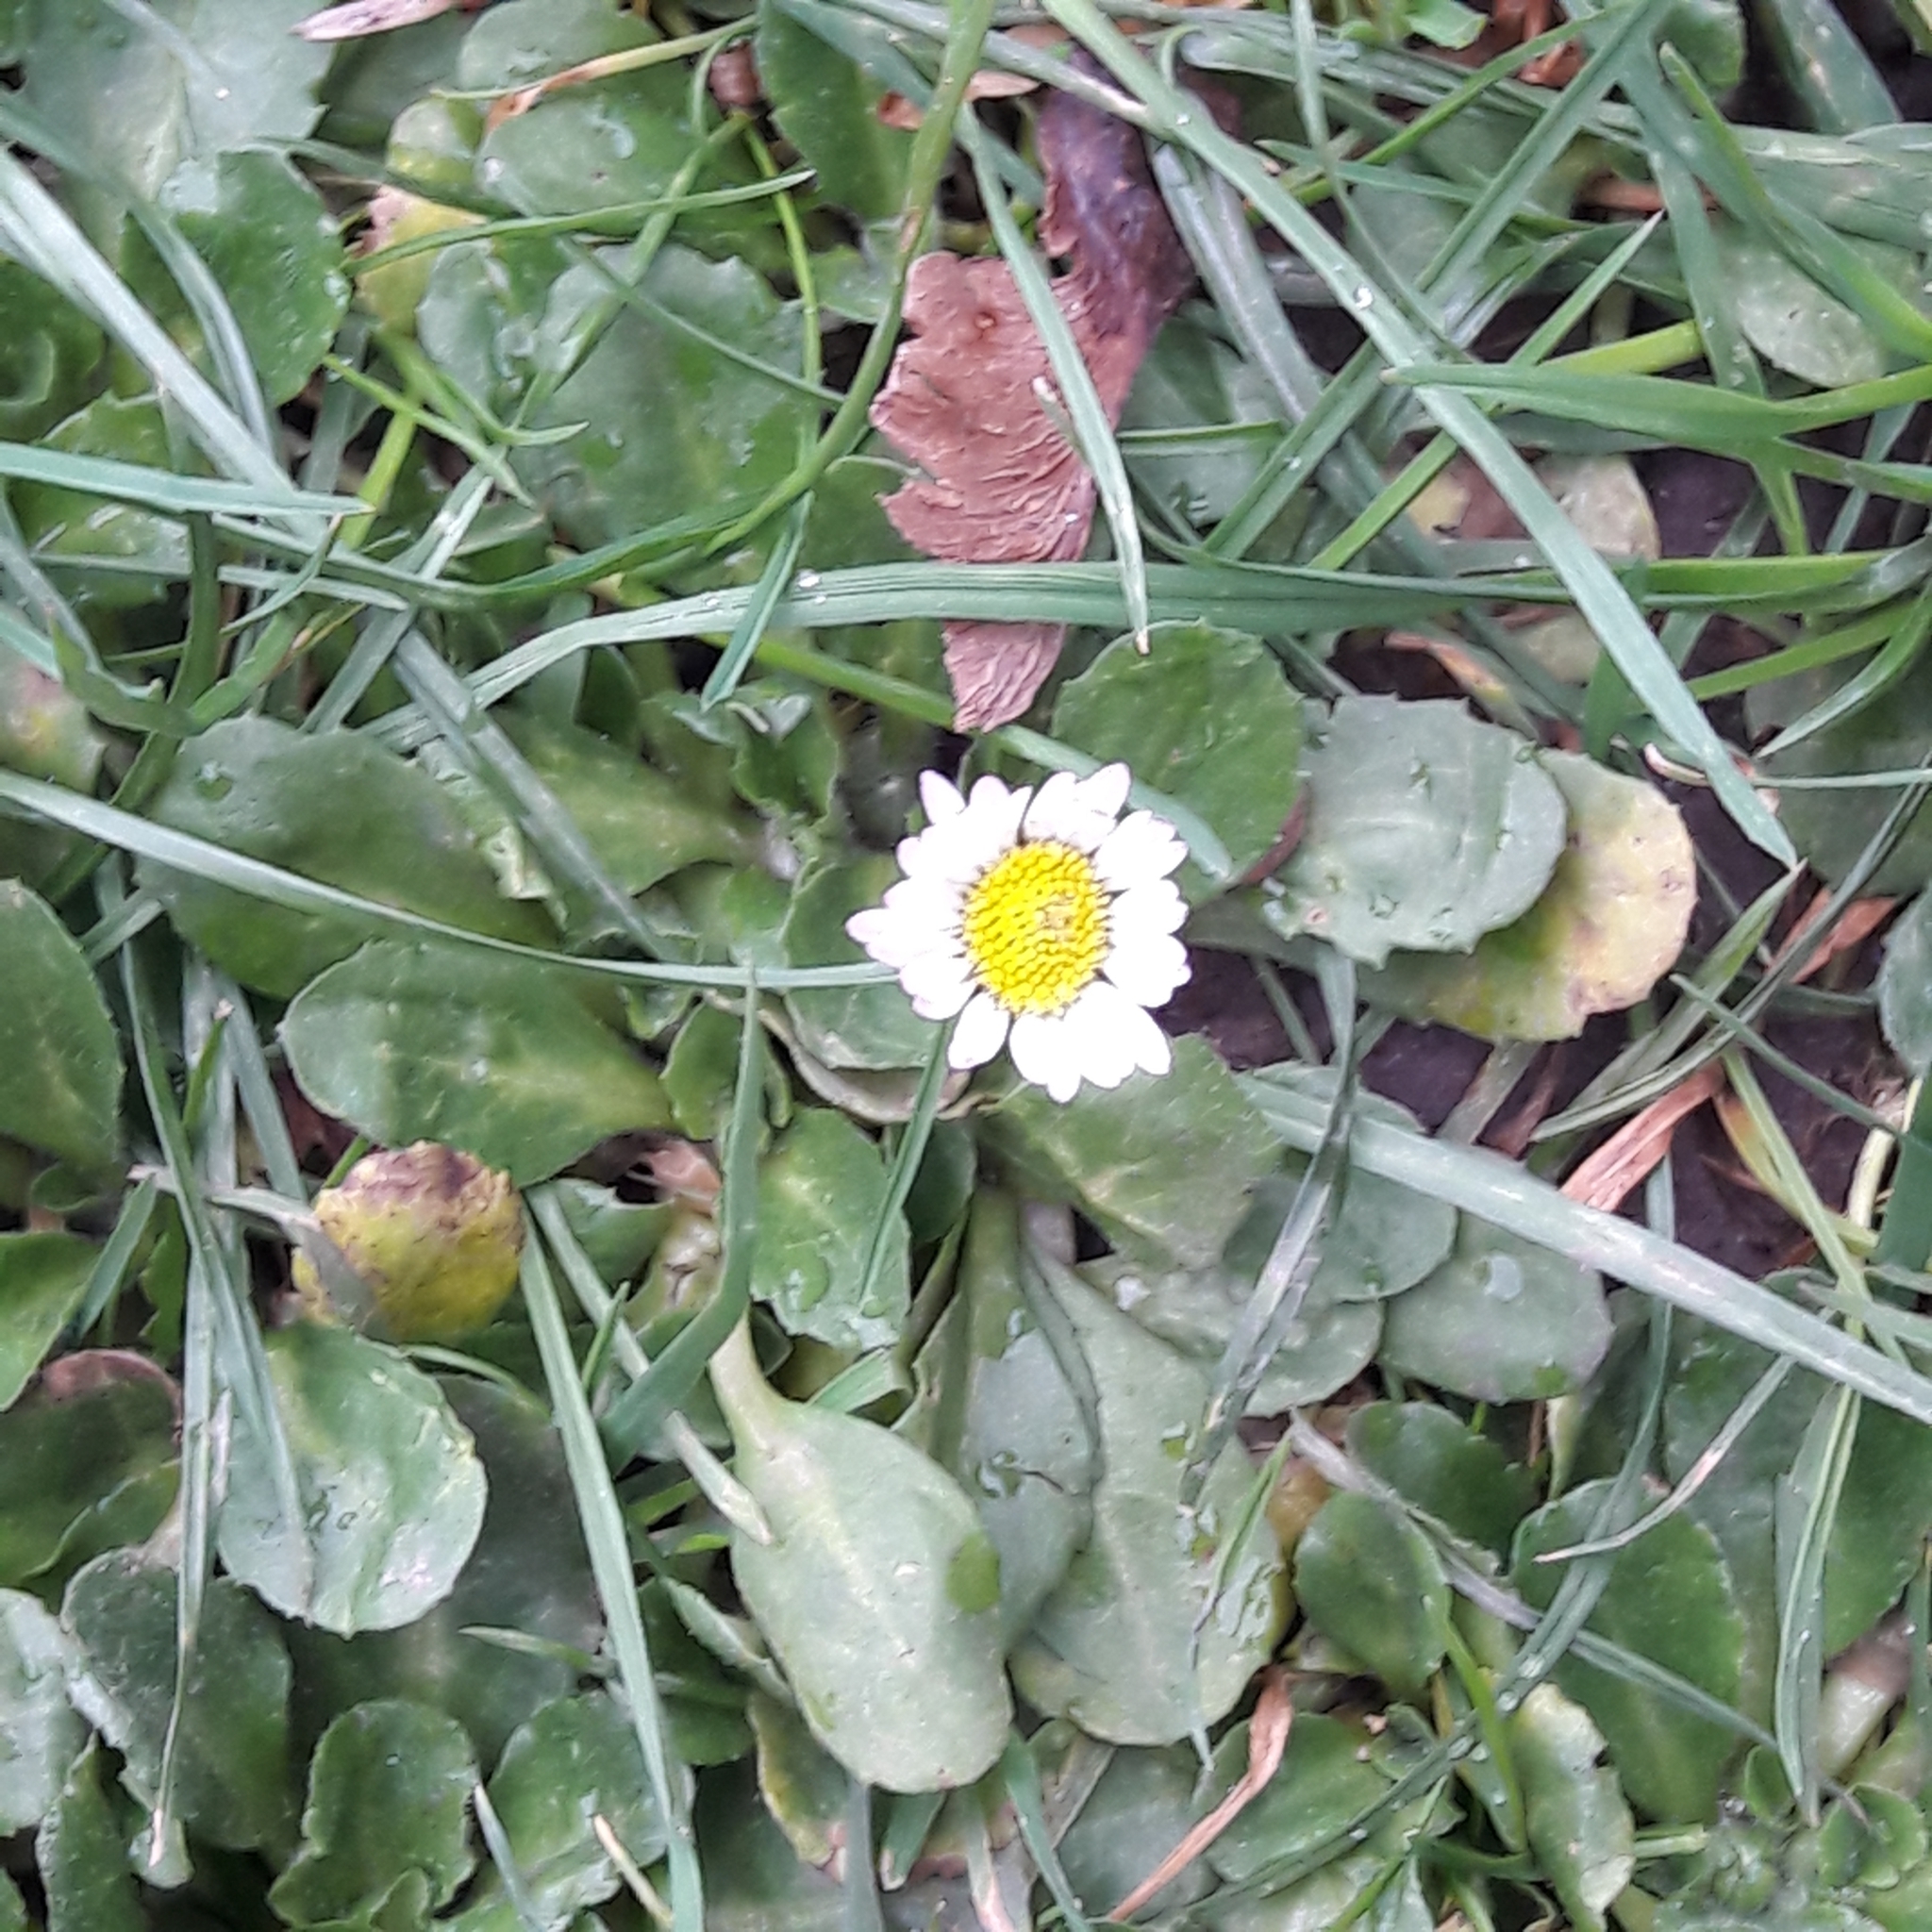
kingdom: Plantae
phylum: Tracheophyta
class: Magnoliopsida
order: Asterales
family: Asteraceae
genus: Bellis
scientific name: Bellis perennis
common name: Lawndaisy
